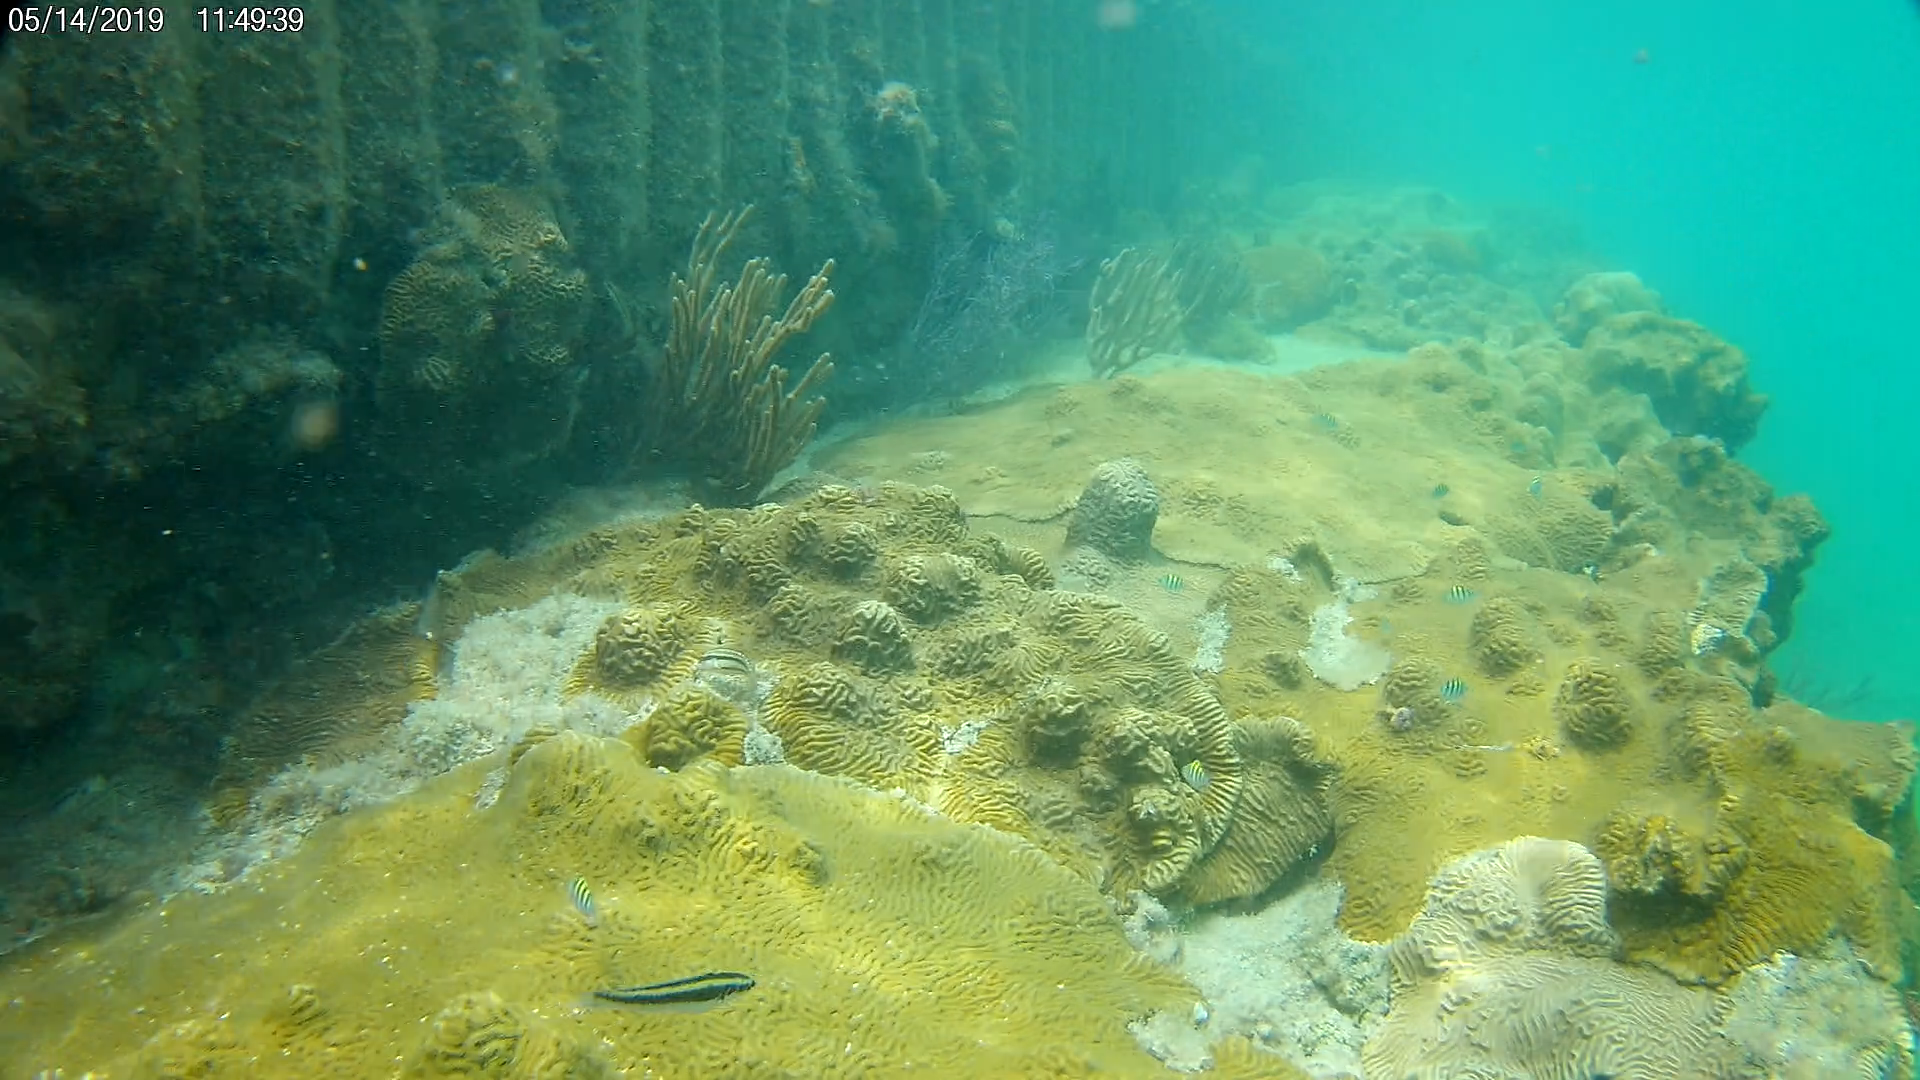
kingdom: Animalia
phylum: Chordata
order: Perciformes
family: Labridae
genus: Thalassoma
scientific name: Thalassoma bifasciatum
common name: Bluehead wrasse
